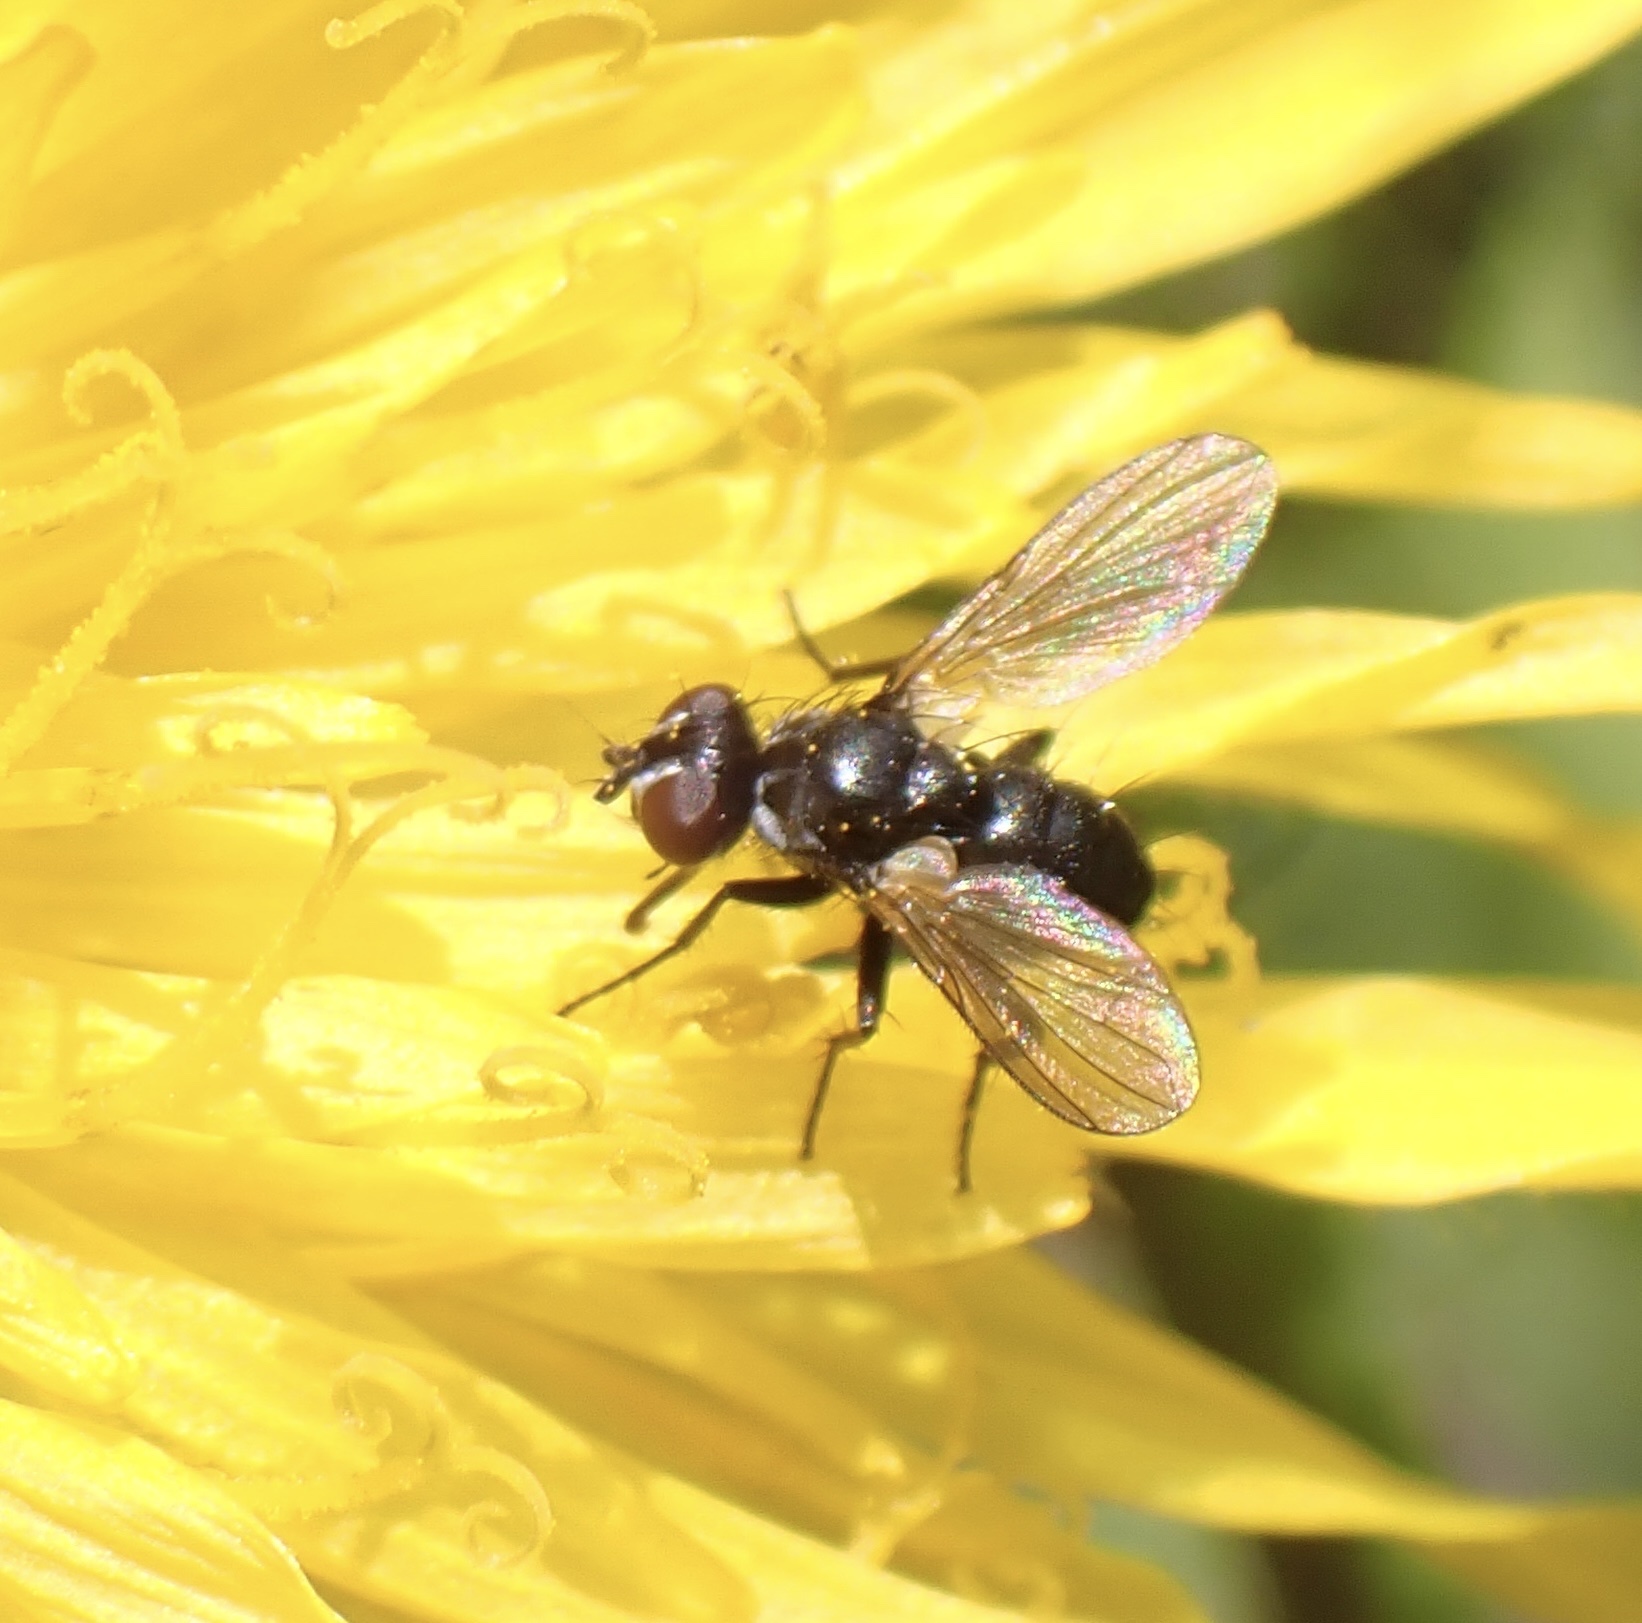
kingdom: Animalia
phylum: Arthropoda
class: Insecta
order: Diptera
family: Tachinidae
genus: Phania
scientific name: Phania funesta
